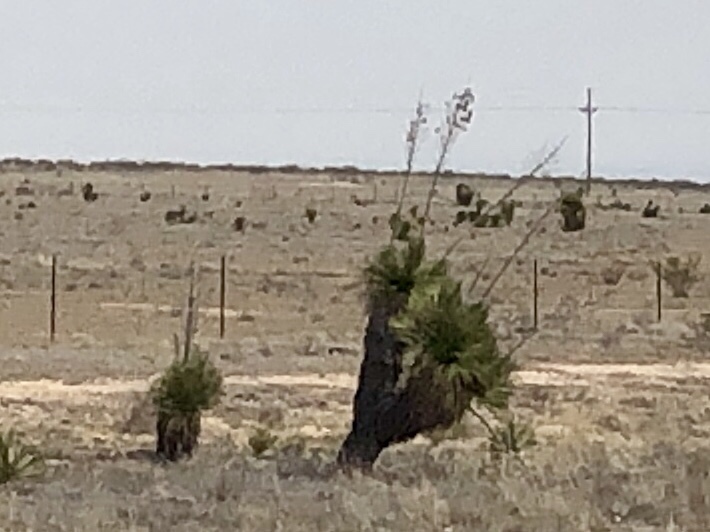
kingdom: Plantae
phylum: Tracheophyta
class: Liliopsida
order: Asparagales
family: Asparagaceae
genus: Yucca
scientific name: Yucca elata
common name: Palmella
